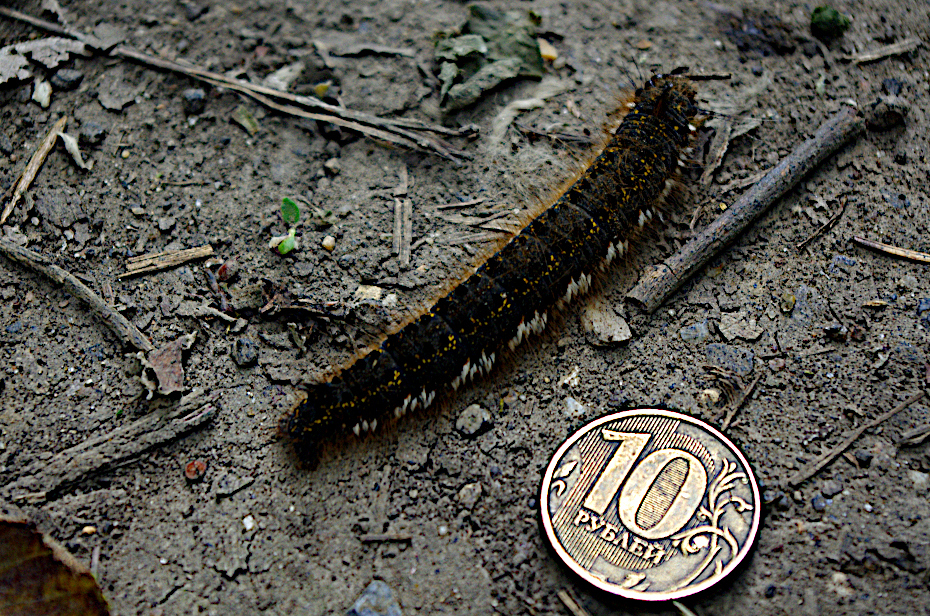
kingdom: Animalia
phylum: Arthropoda
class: Insecta
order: Lepidoptera
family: Lasiocampidae
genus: Euthrix
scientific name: Euthrix potatoria
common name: Drinker
